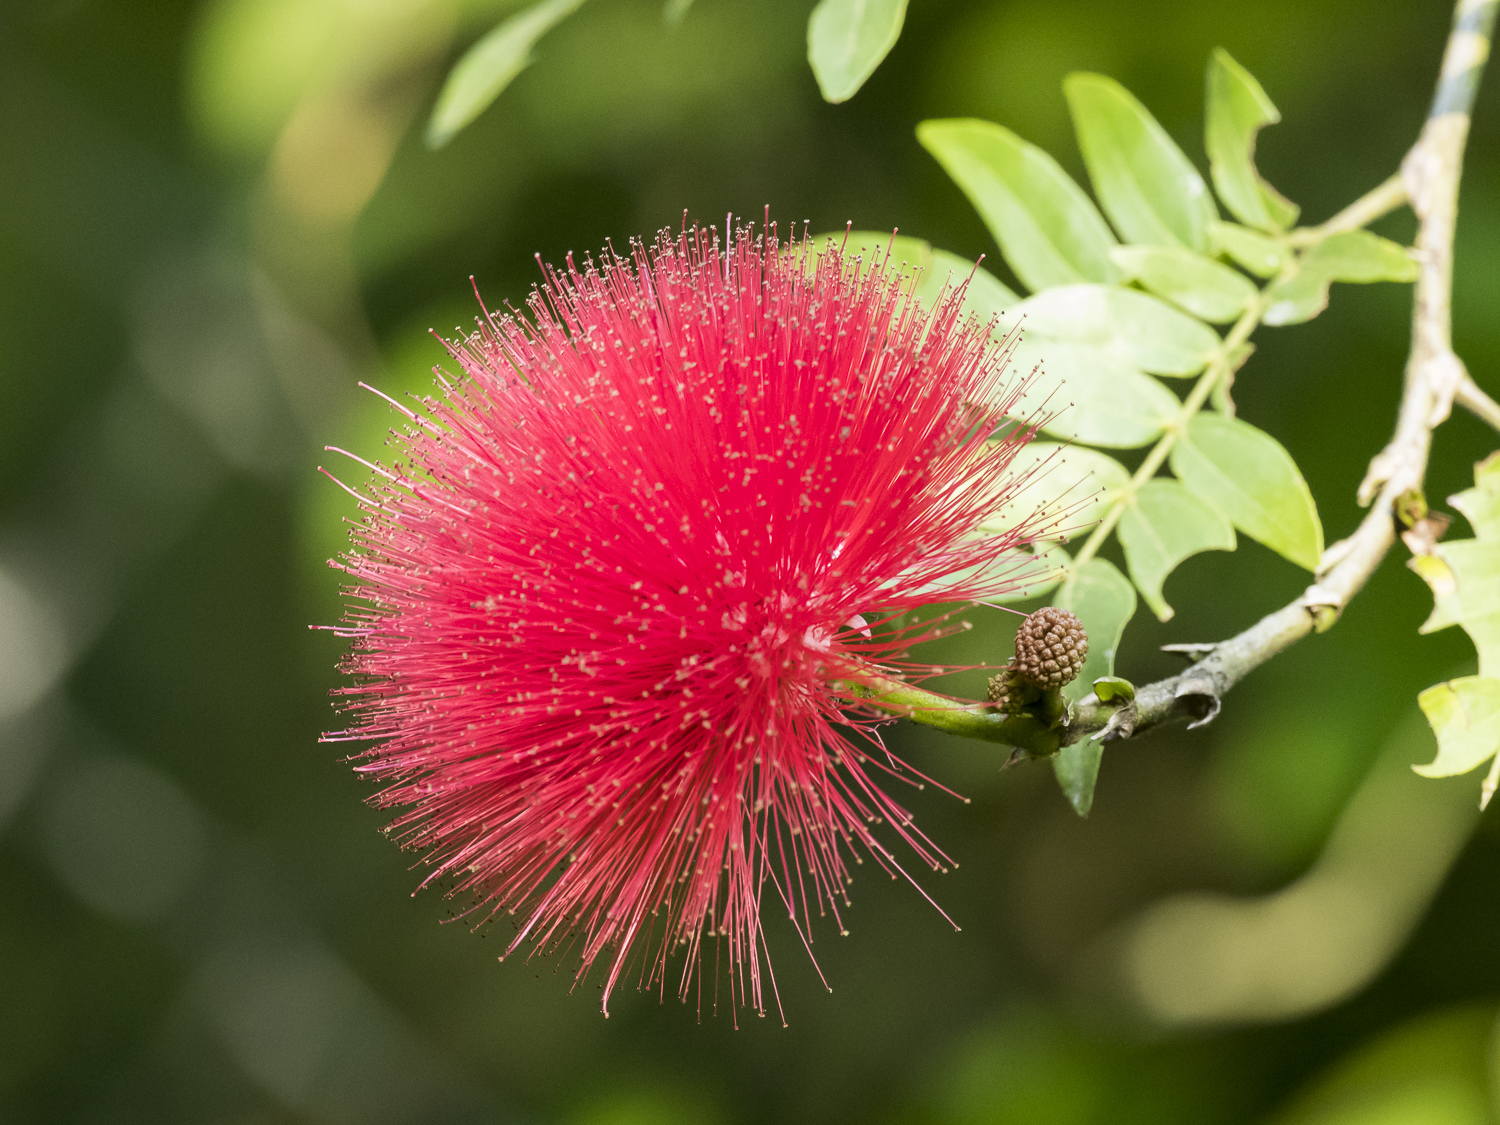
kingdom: Plantae
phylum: Tracheophyta
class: Magnoliopsida
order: Fabales
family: Fabaceae
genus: Calliandra
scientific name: Calliandra haematocephala
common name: Blood red tassel flower
